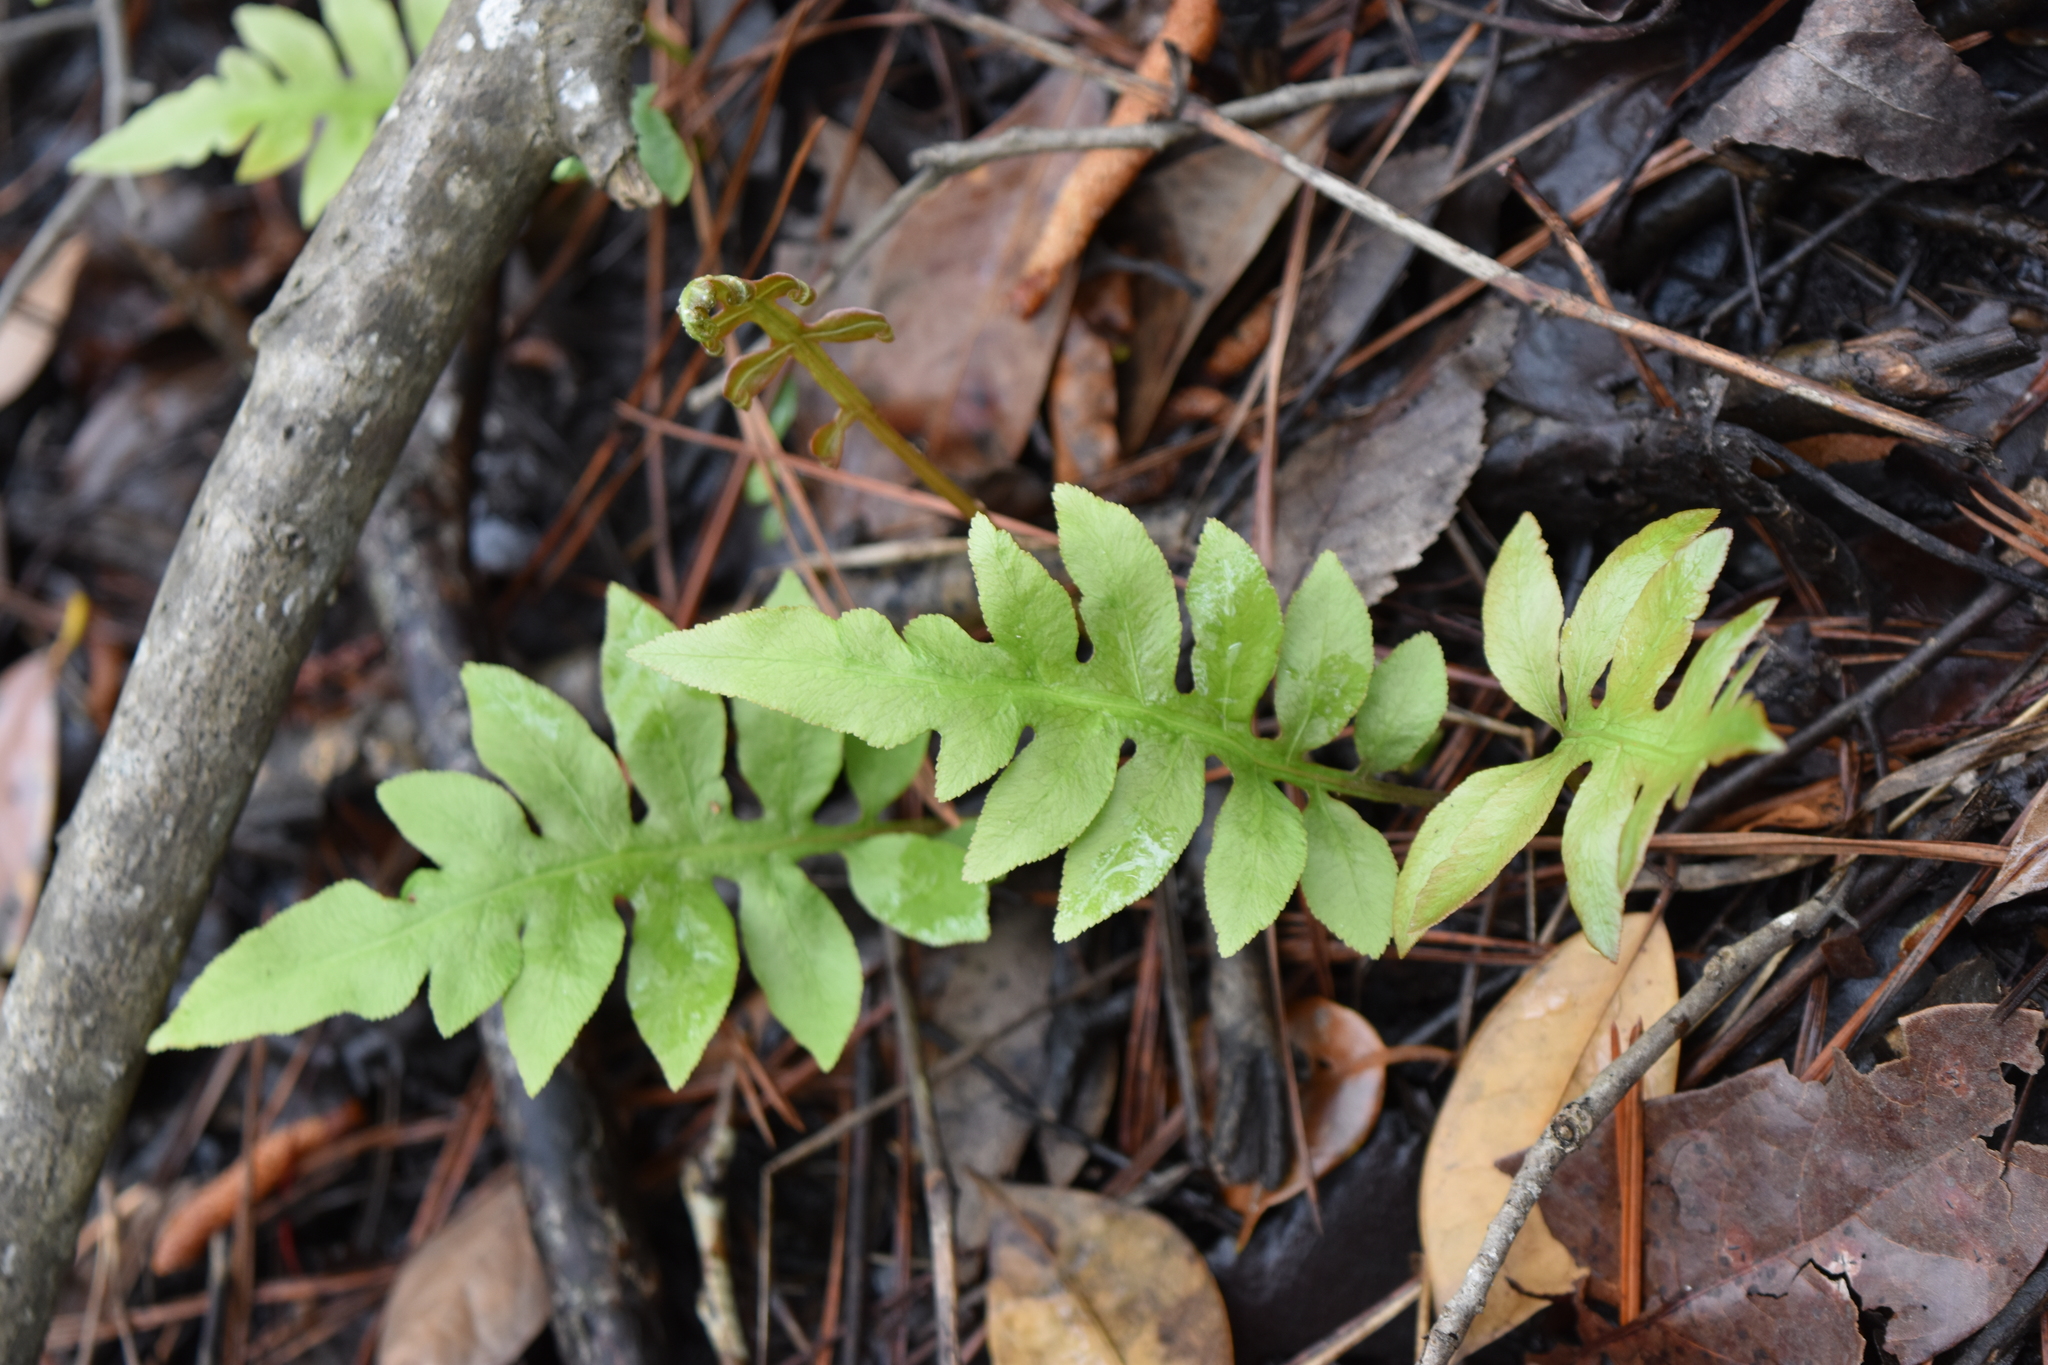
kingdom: Plantae
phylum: Tracheophyta
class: Polypodiopsida
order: Polypodiales
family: Blechnaceae
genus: Lorinseria
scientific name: Lorinseria areolata
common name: Dwarf chain fern
